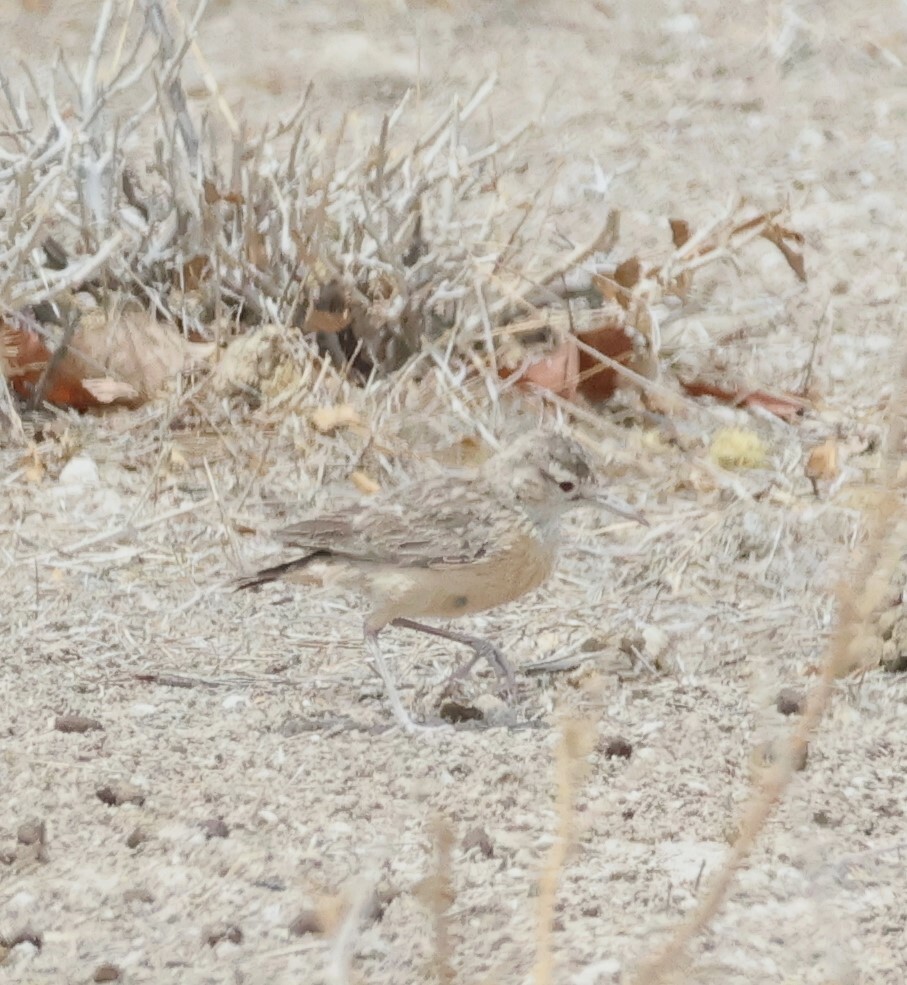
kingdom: Animalia
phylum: Chordata
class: Aves
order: Passeriformes
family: Alaudidae
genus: Chersomanes
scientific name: Chersomanes albofasciata
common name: Spike-heeled lark
